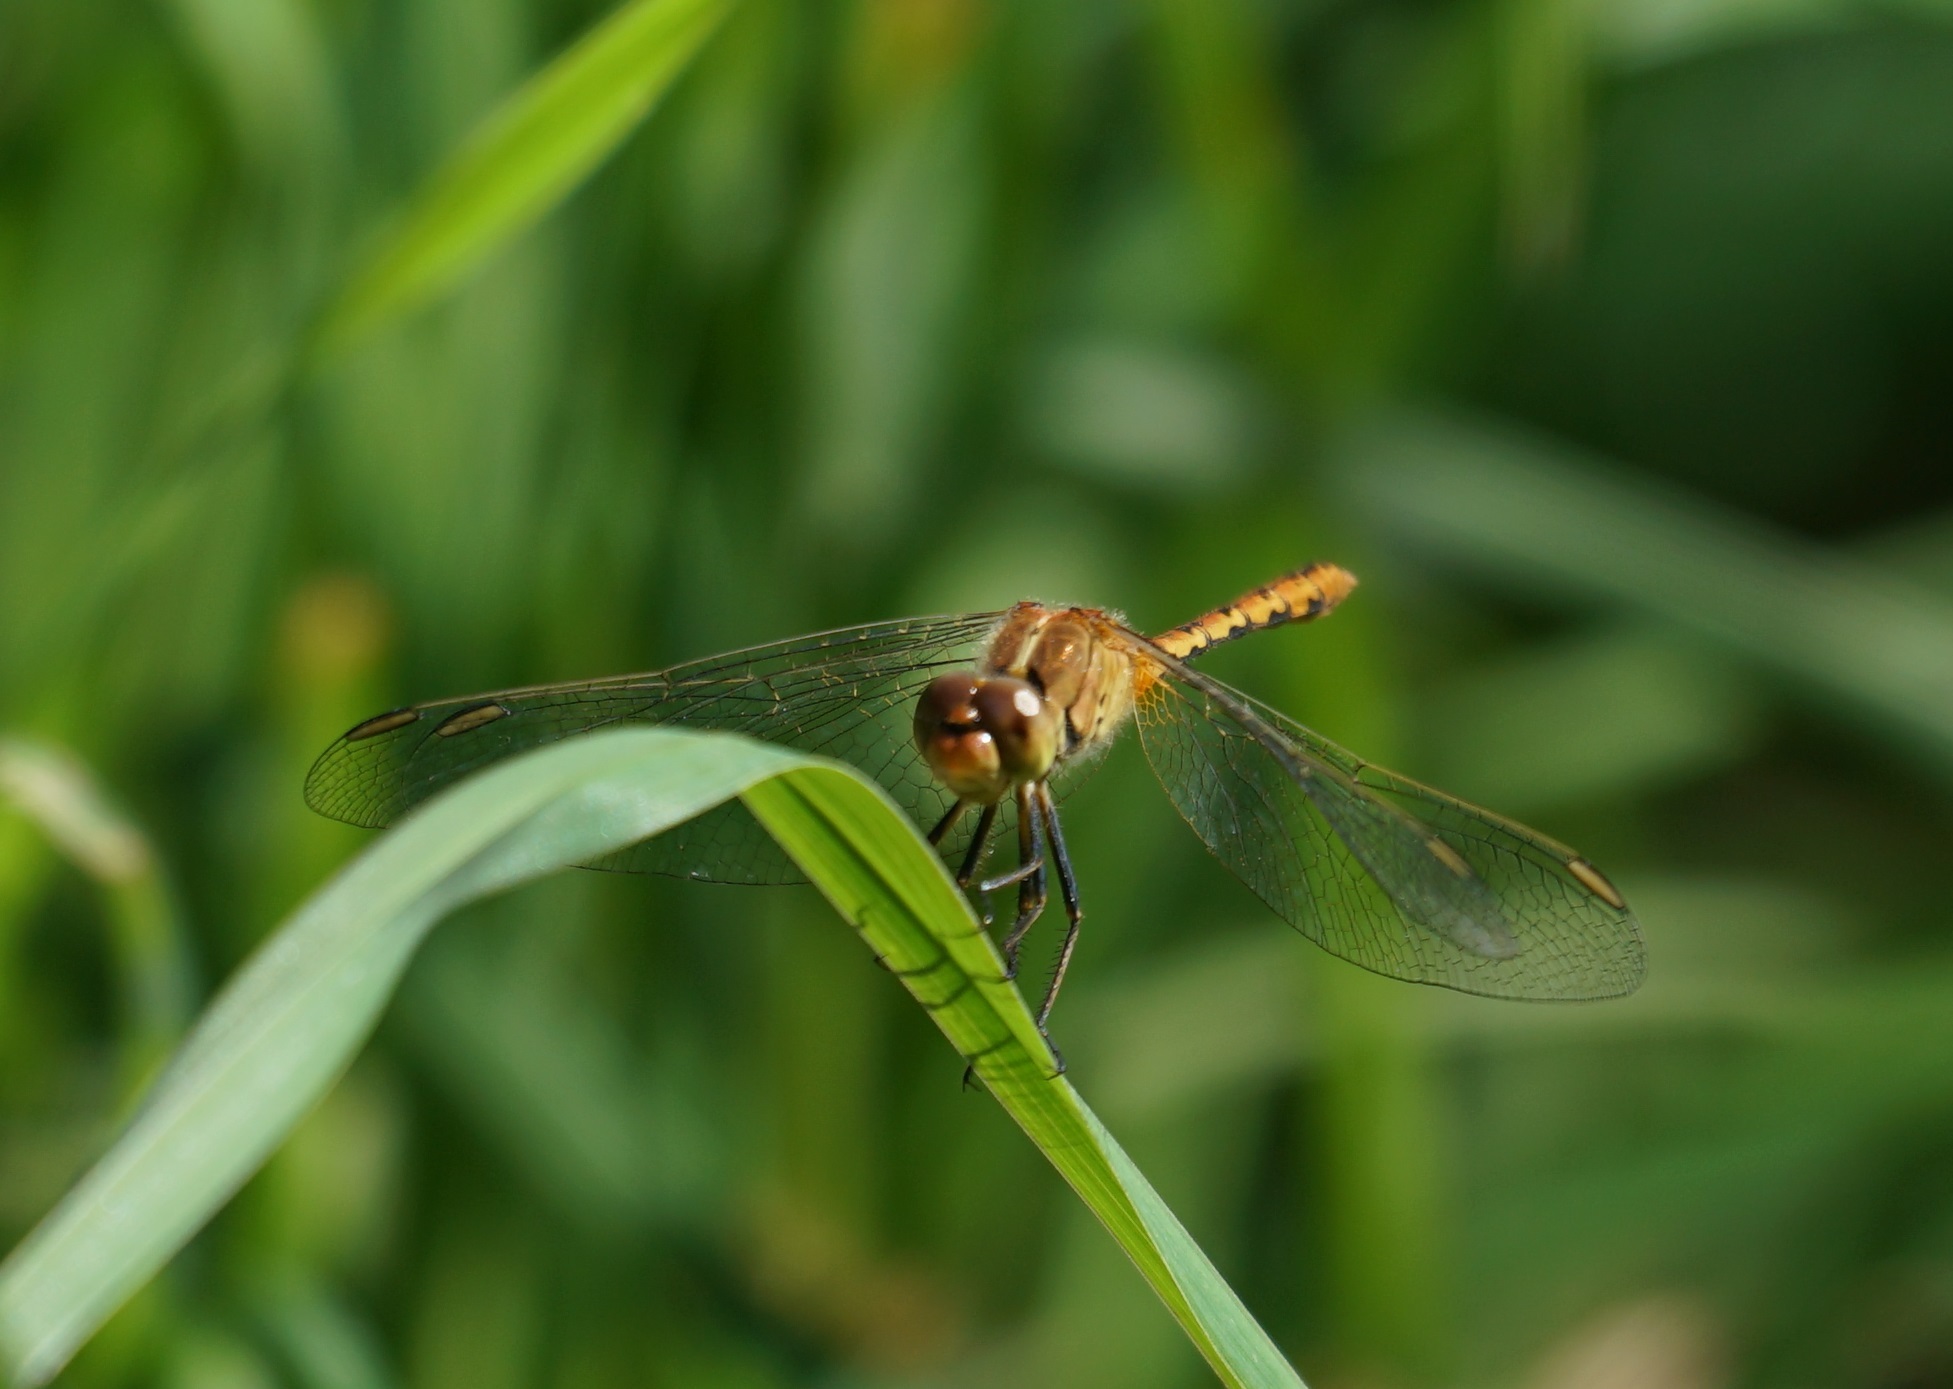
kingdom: Animalia
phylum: Arthropoda
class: Insecta
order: Odonata
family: Libellulidae
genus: Diplacodes
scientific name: Diplacodes bipunctata
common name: Red percher dragonfly
